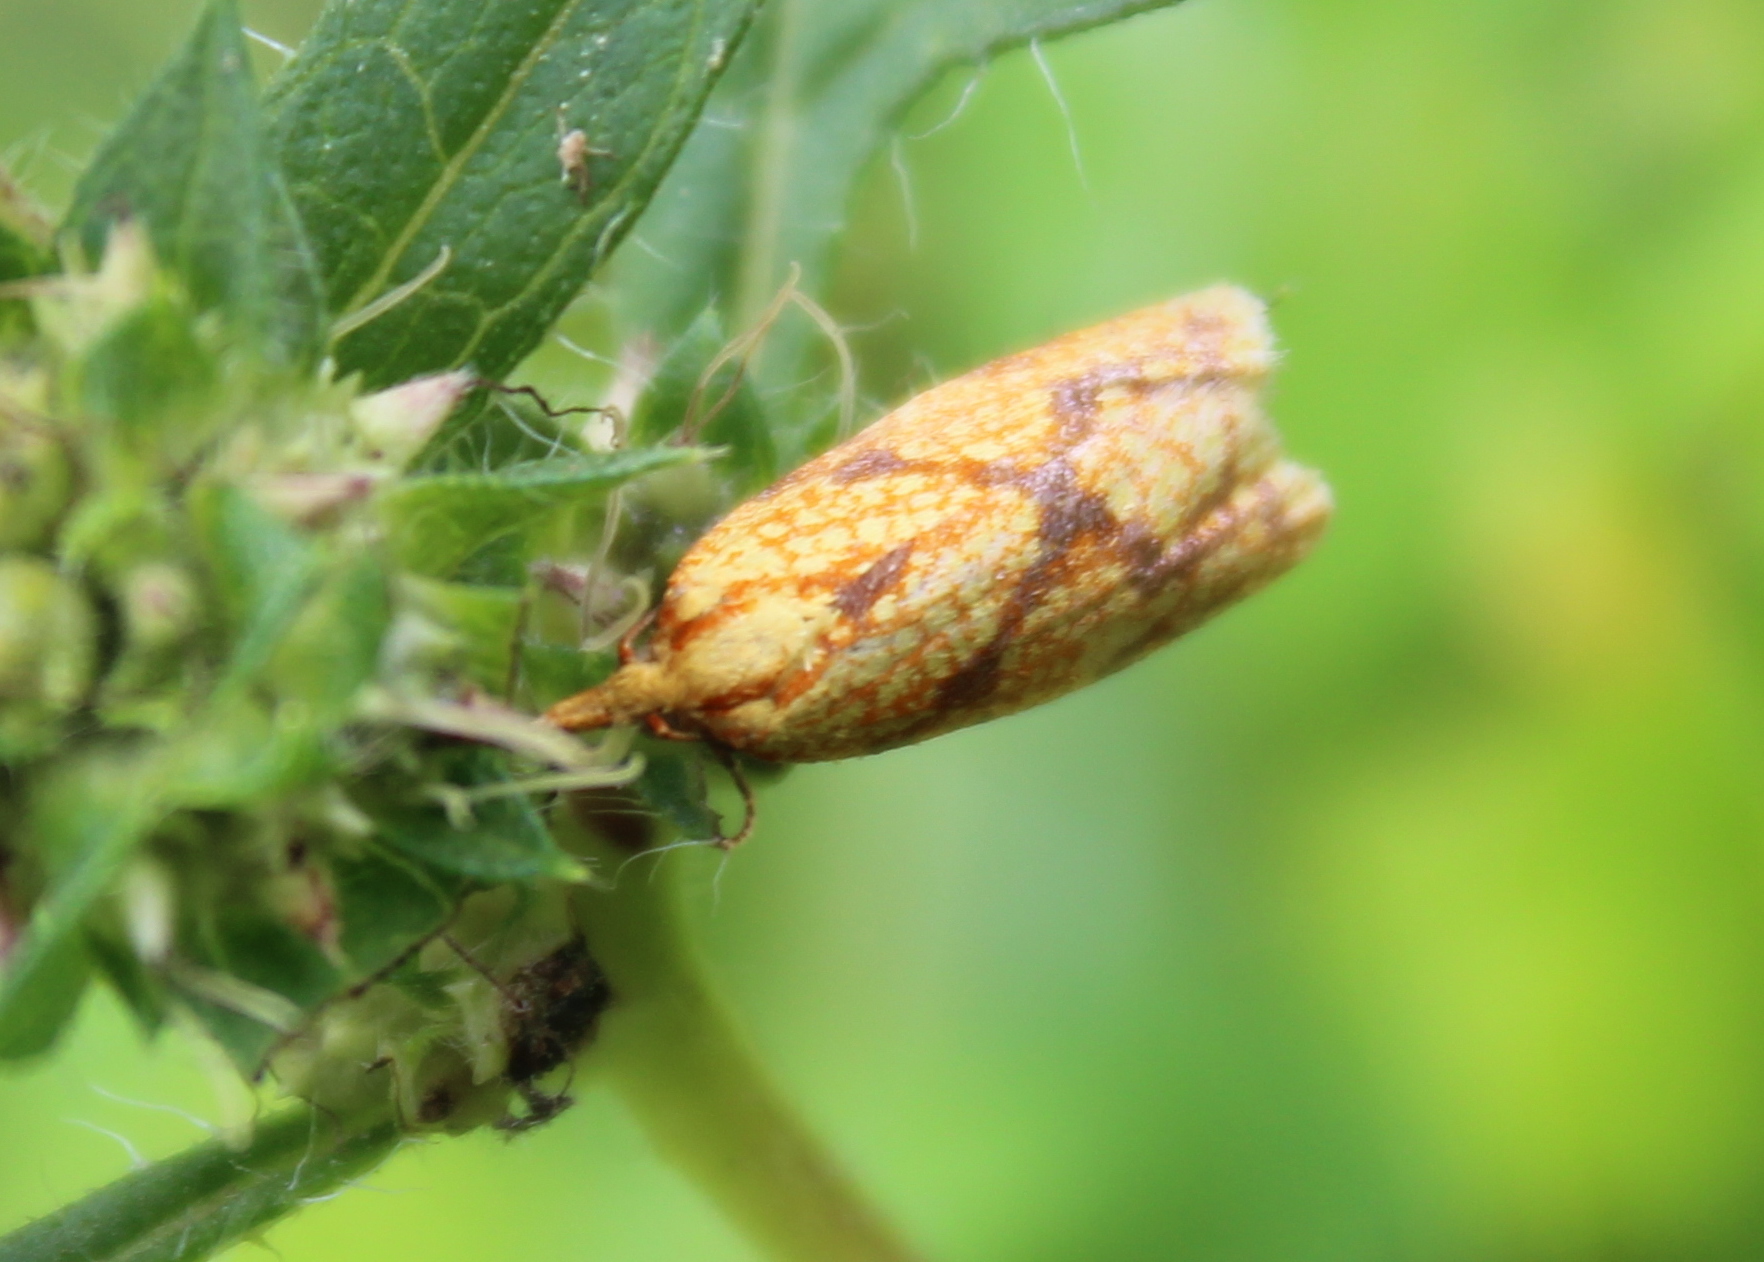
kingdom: Animalia
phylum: Arthropoda
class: Insecta
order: Lepidoptera
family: Tortricidae
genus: Sparganothis
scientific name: Sparganothis sulfureana
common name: Sparganothis fruitworm moth
